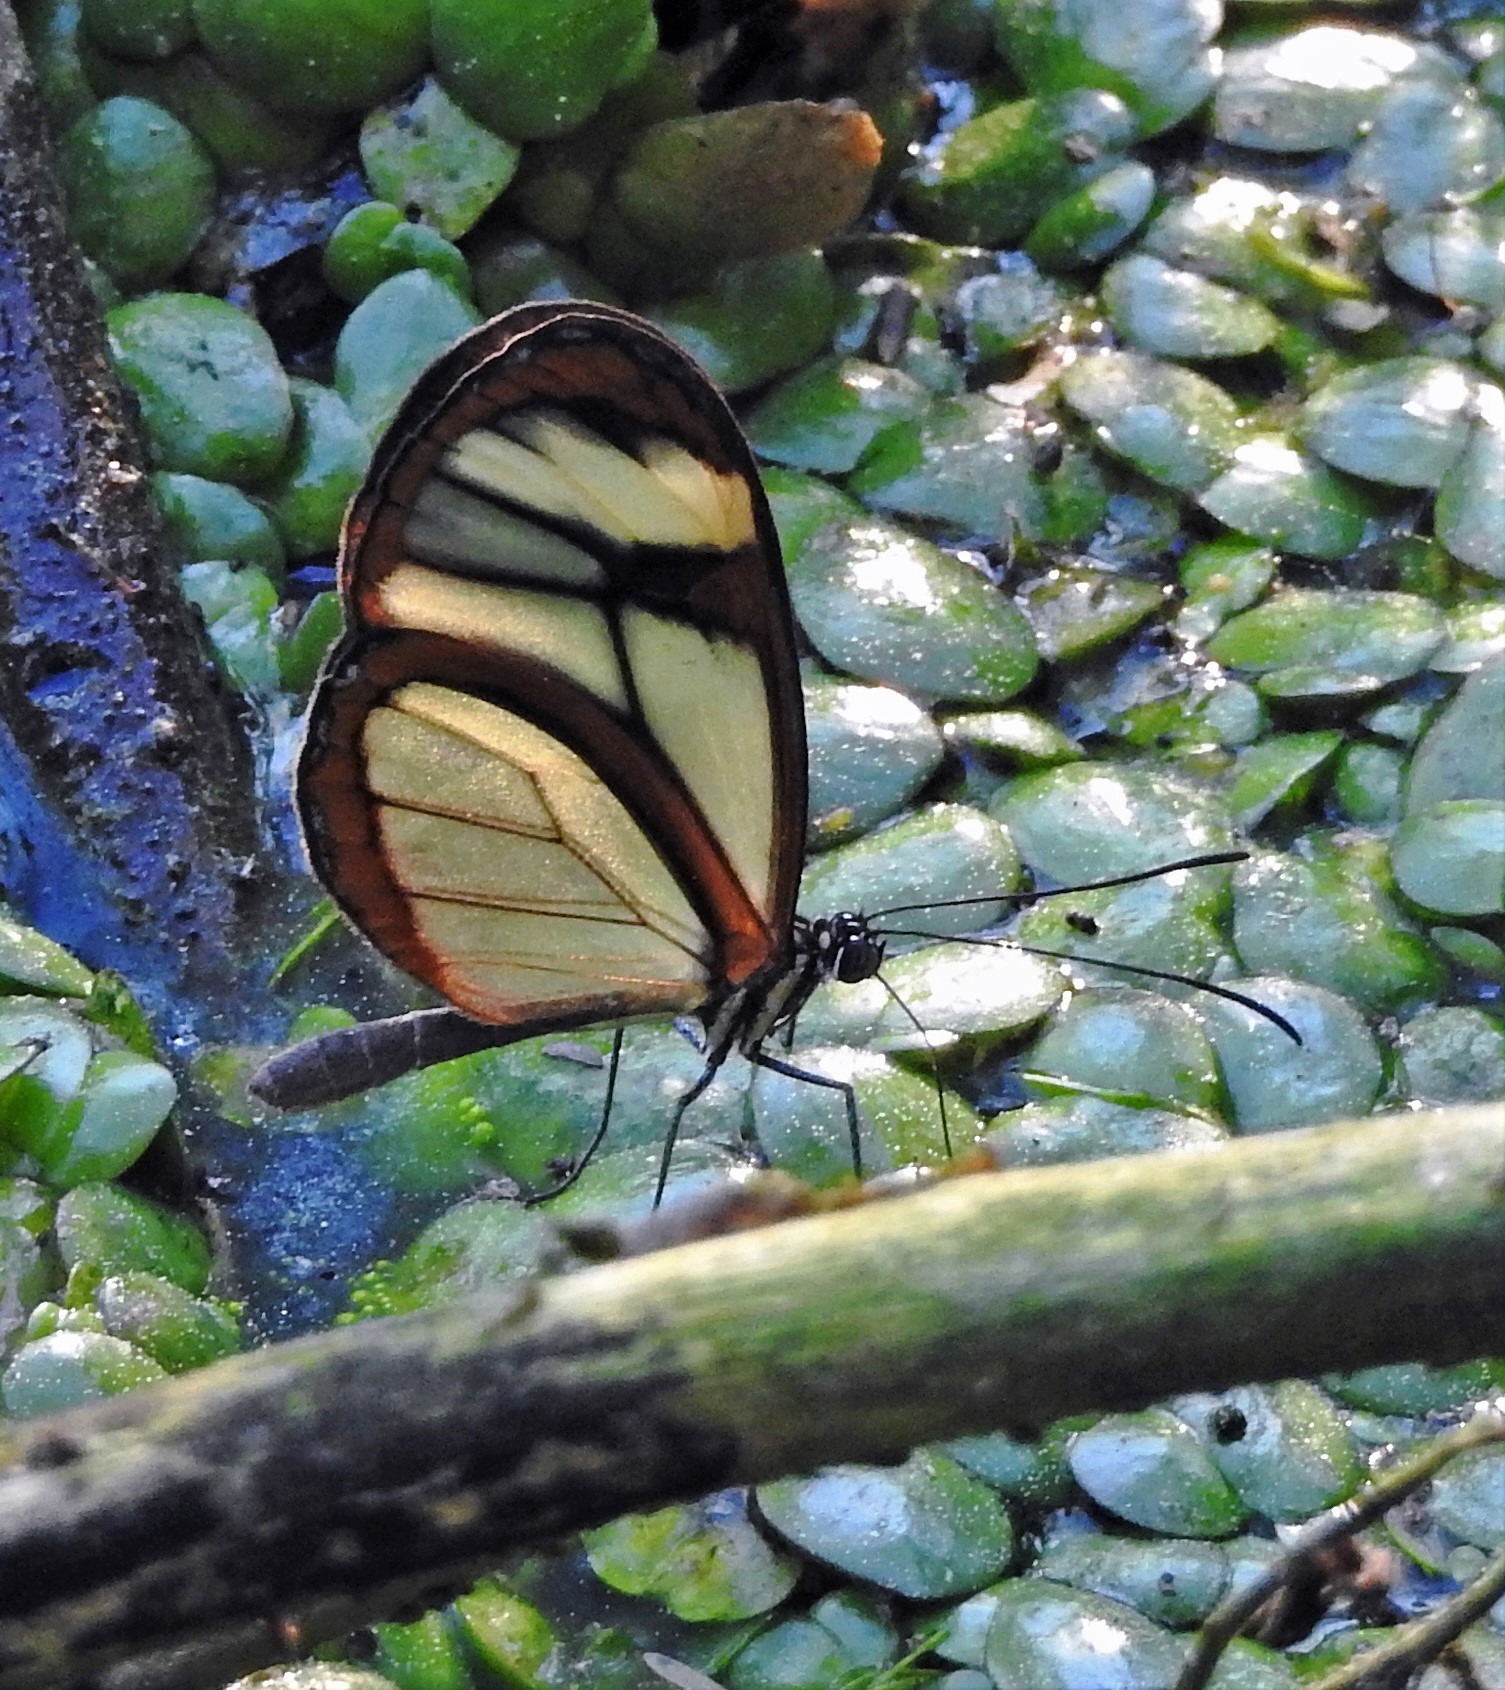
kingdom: Animalia
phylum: Arthropoda
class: Insecta
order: Lepidoptera
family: Nymphalidae
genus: Mcclungia
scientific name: Mcclungia cymo
